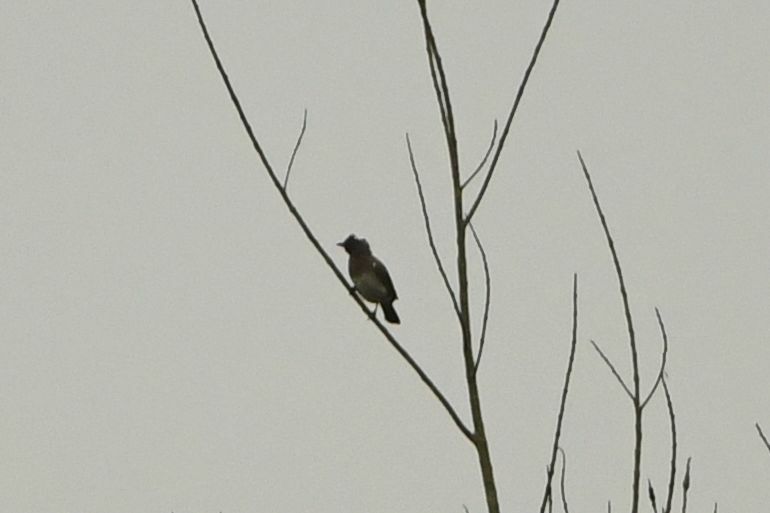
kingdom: Animalia
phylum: Chordata
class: Aves
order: Passeriformes
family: Pycnonotidae
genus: Pycnonotus
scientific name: Pycnonotus barbatus
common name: Common bulbul
